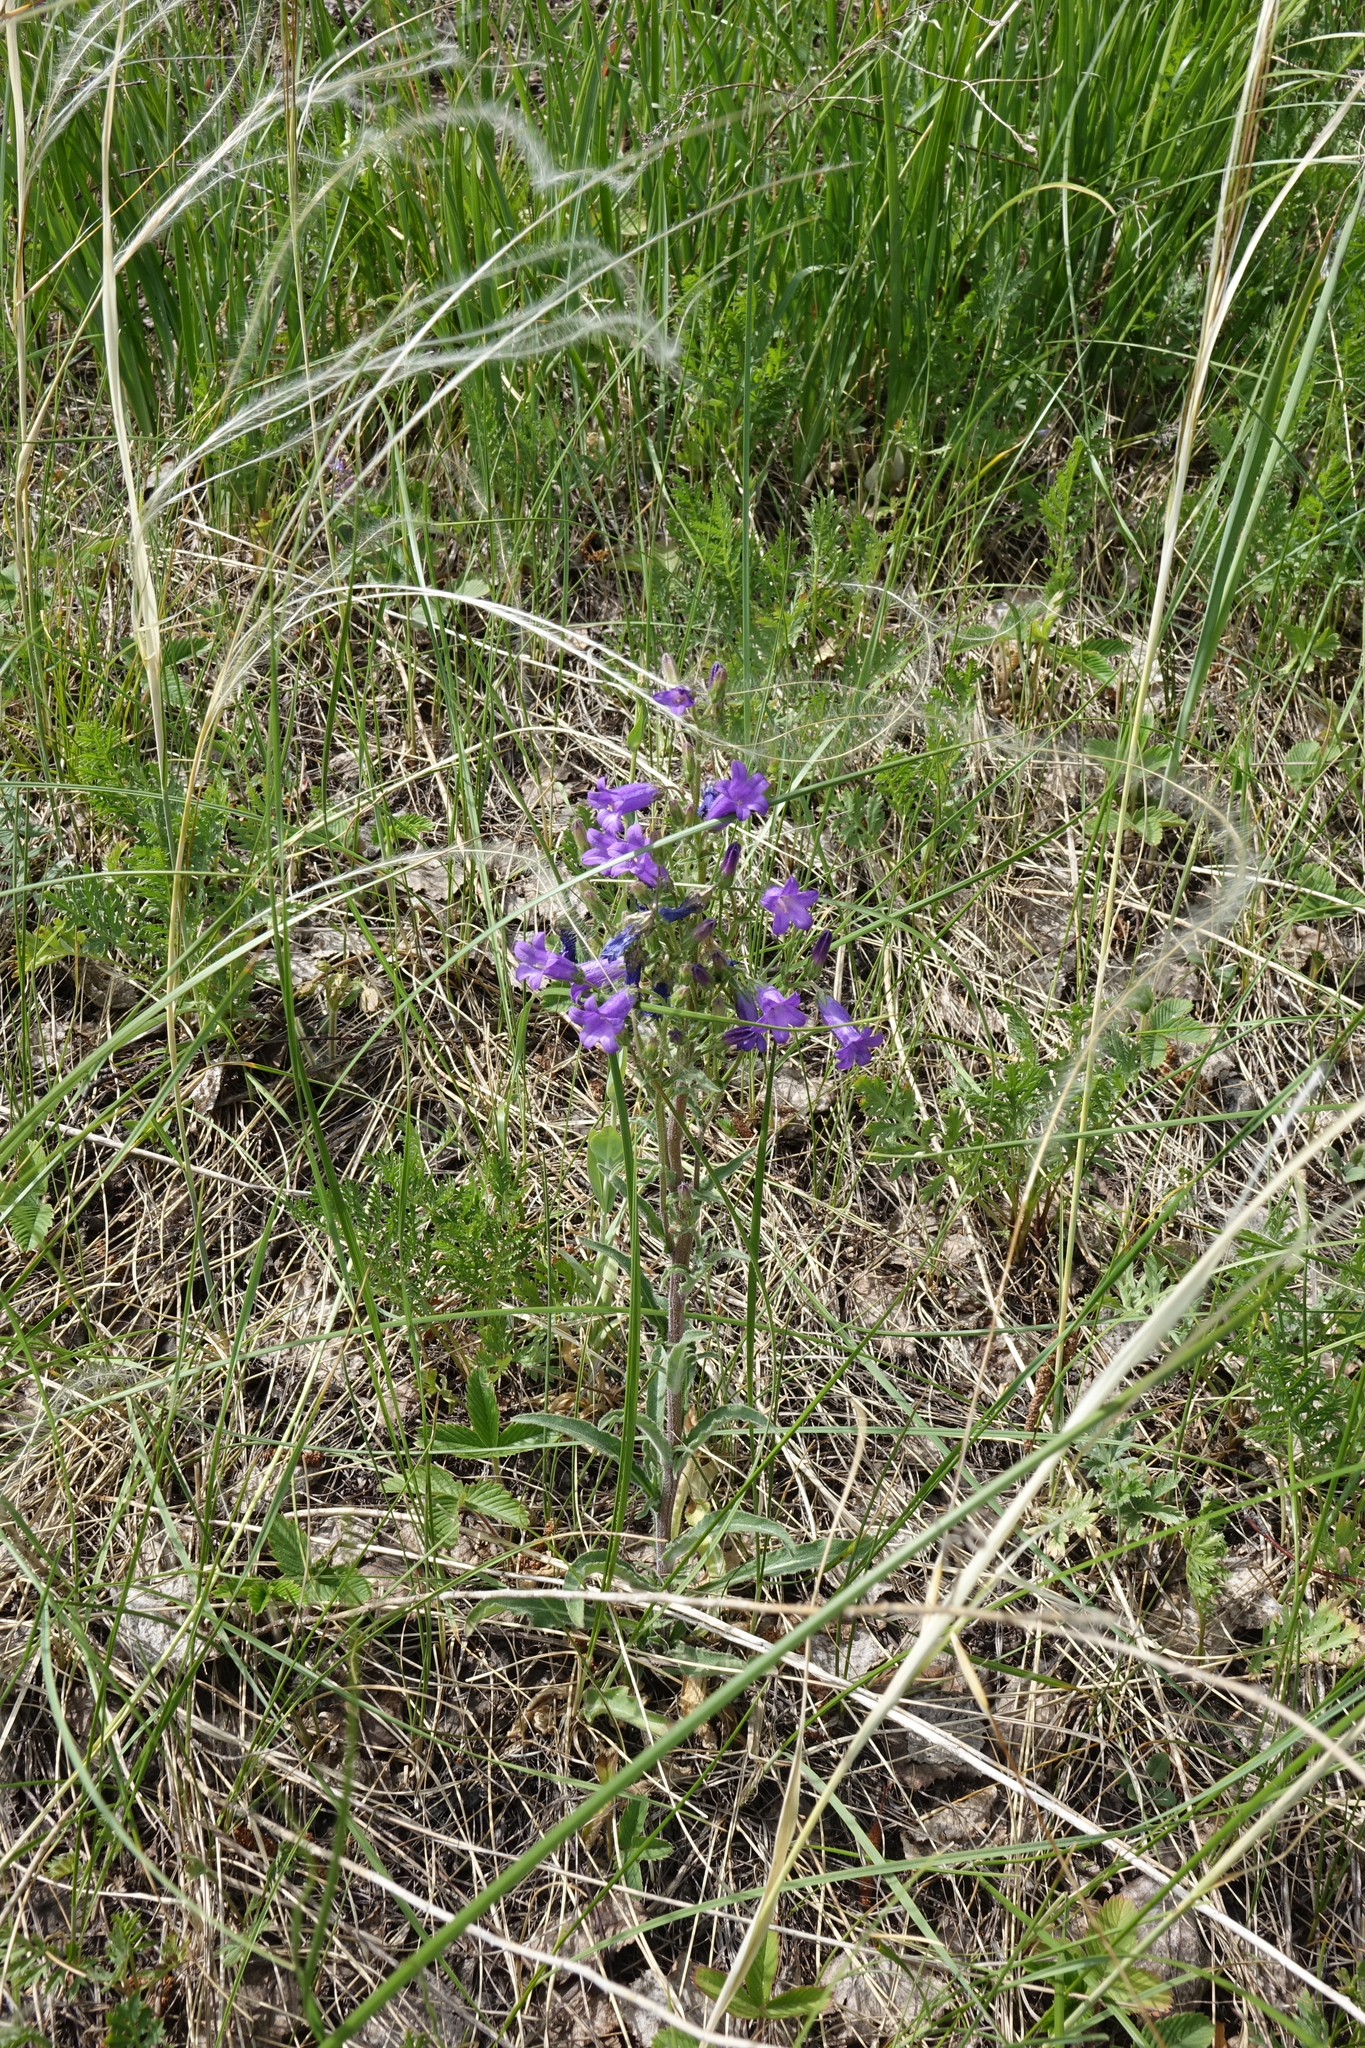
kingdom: Plantae
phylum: Tracheophyta
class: Magnoliopsida
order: Asterales
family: Campanulaceae
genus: Campanula
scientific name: Campanula sibirica
